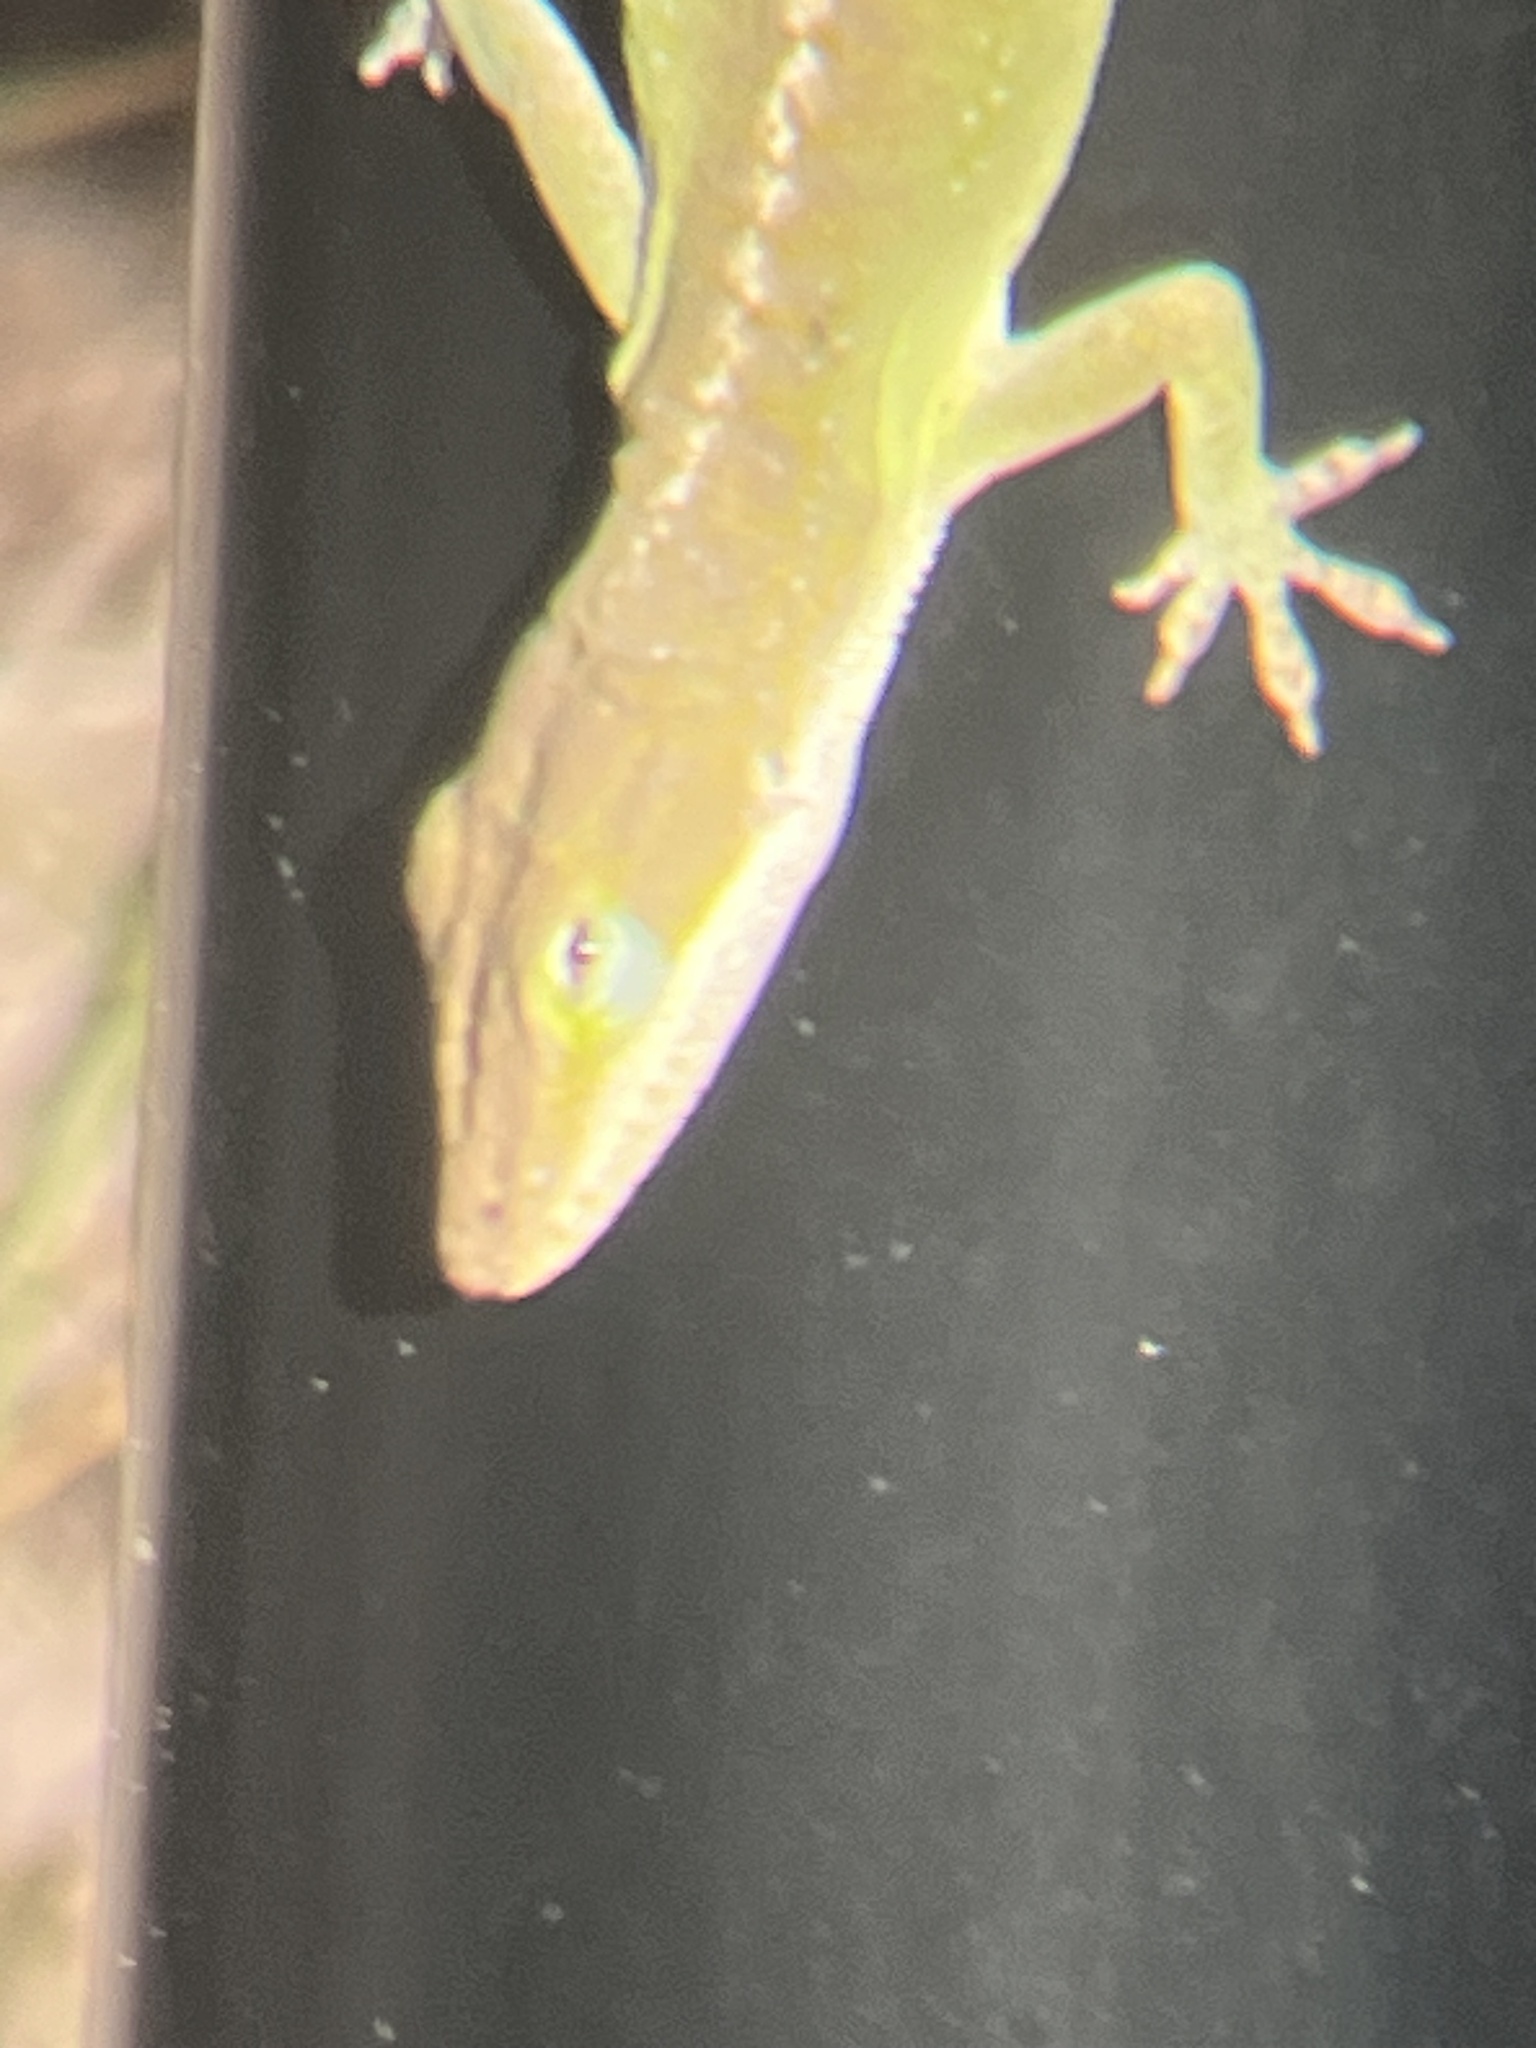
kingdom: Animalia
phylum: Chordata
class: Squamata
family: Dactyloidae
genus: Anolis
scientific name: Anolis carolinensis
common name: Green anole
